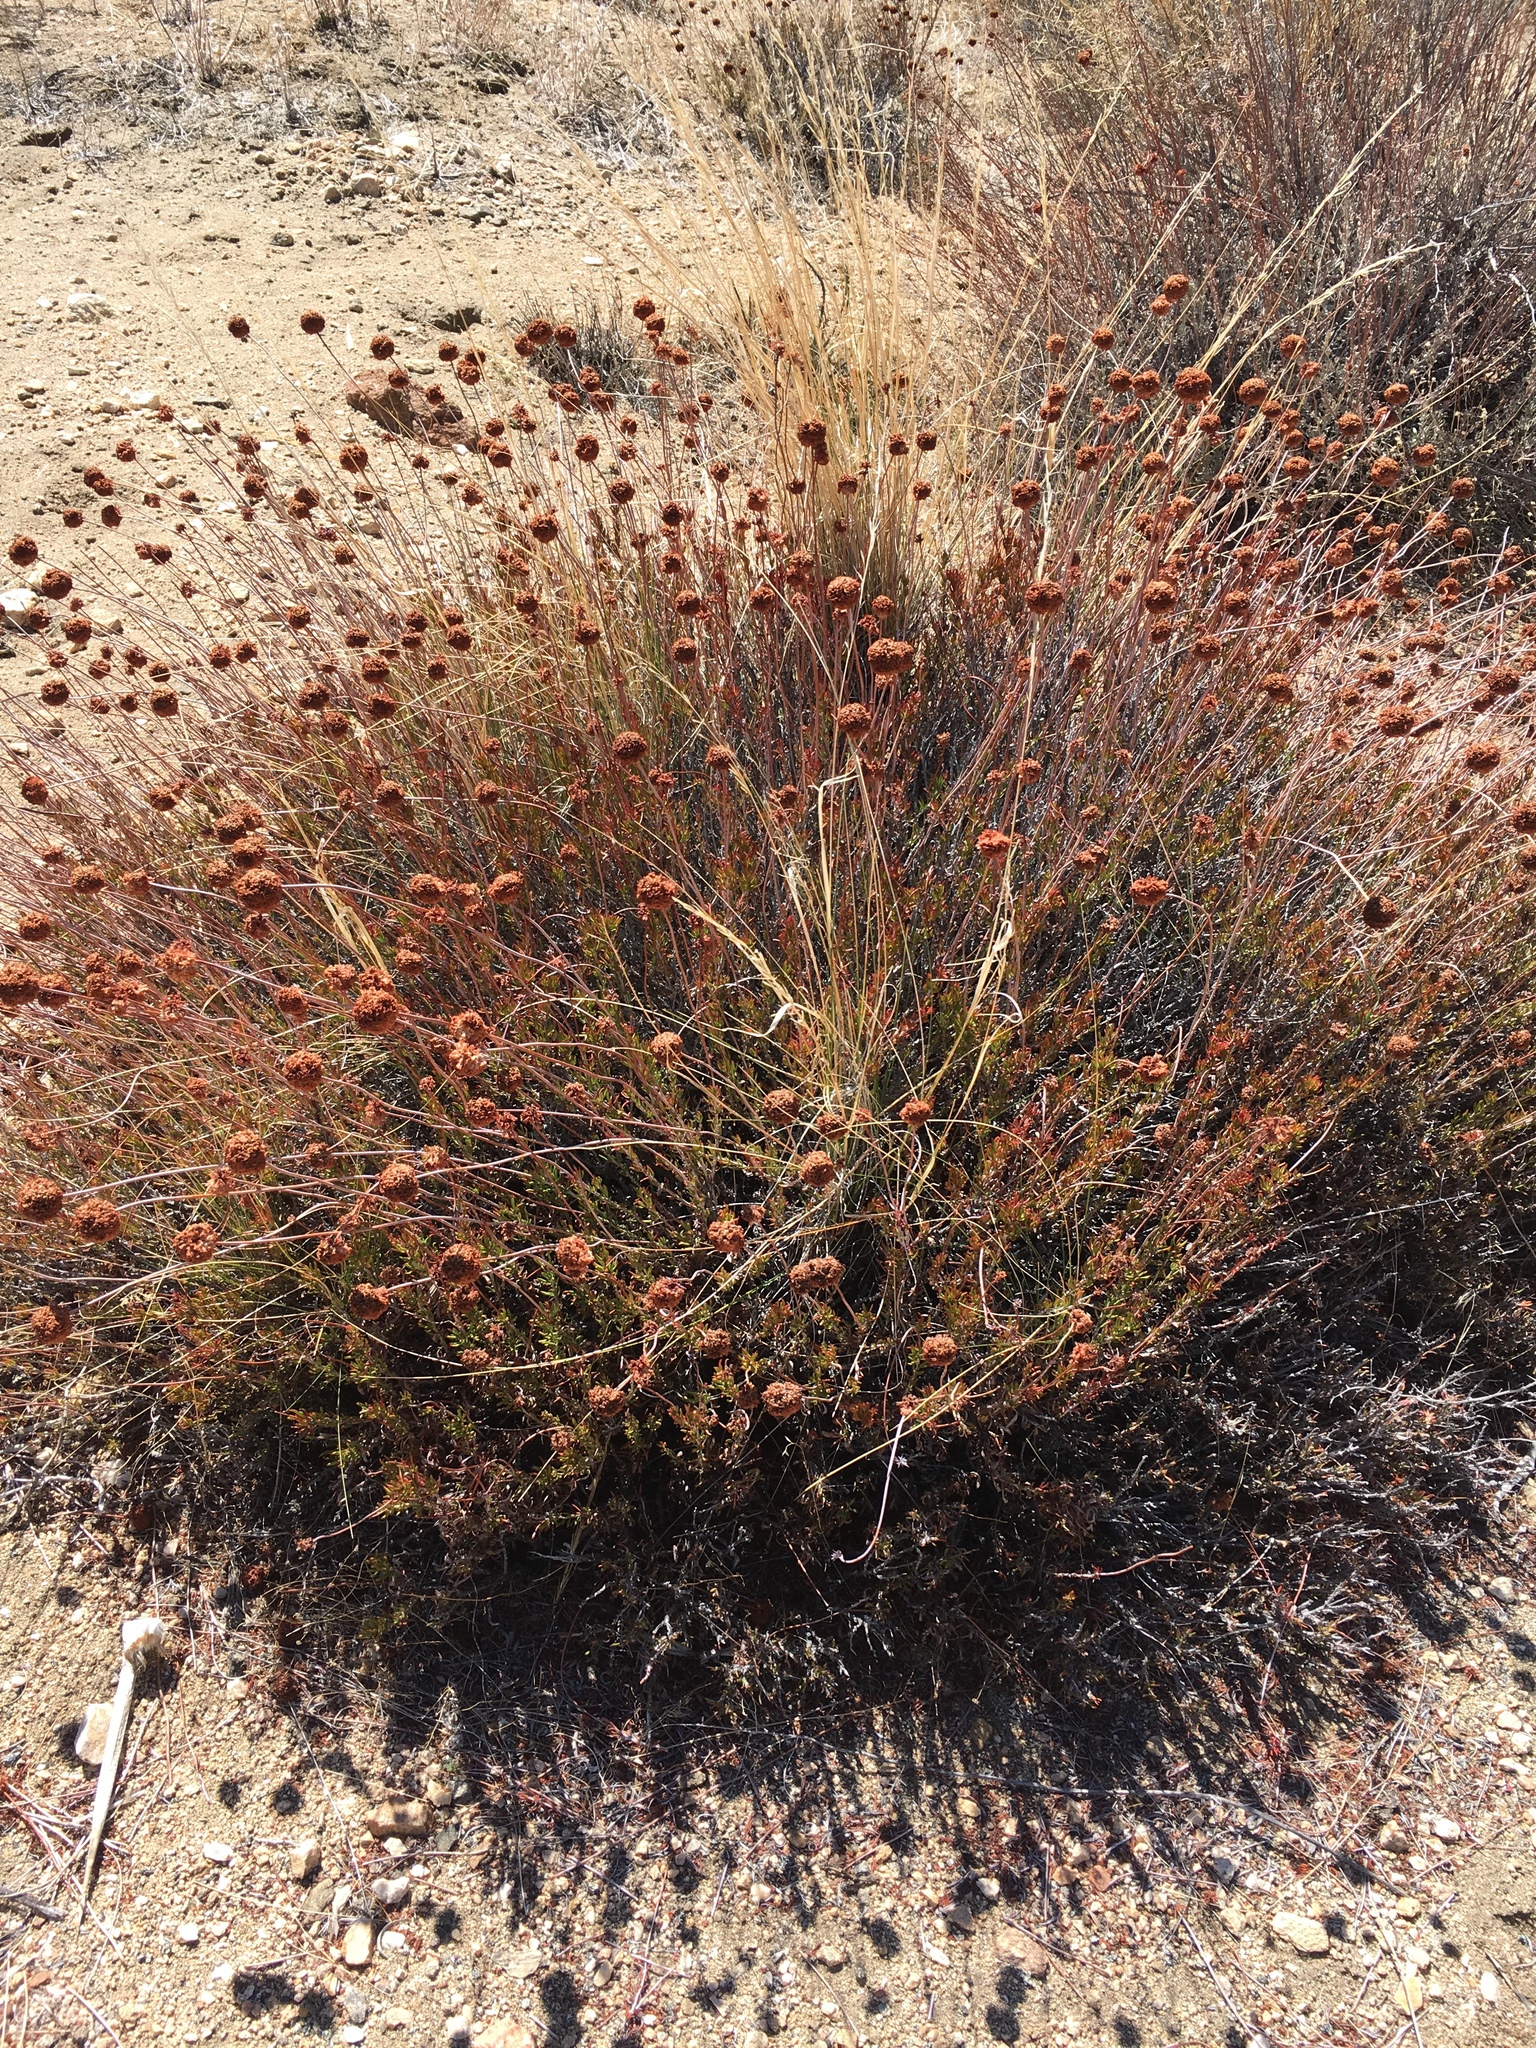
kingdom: Plantae
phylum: Tracheophyta
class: Magnoliopsida
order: Caryophyllales
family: Polygonaceae
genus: Eriogonum
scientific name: Eriogonum fasciculatum
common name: California wild buckwheat
